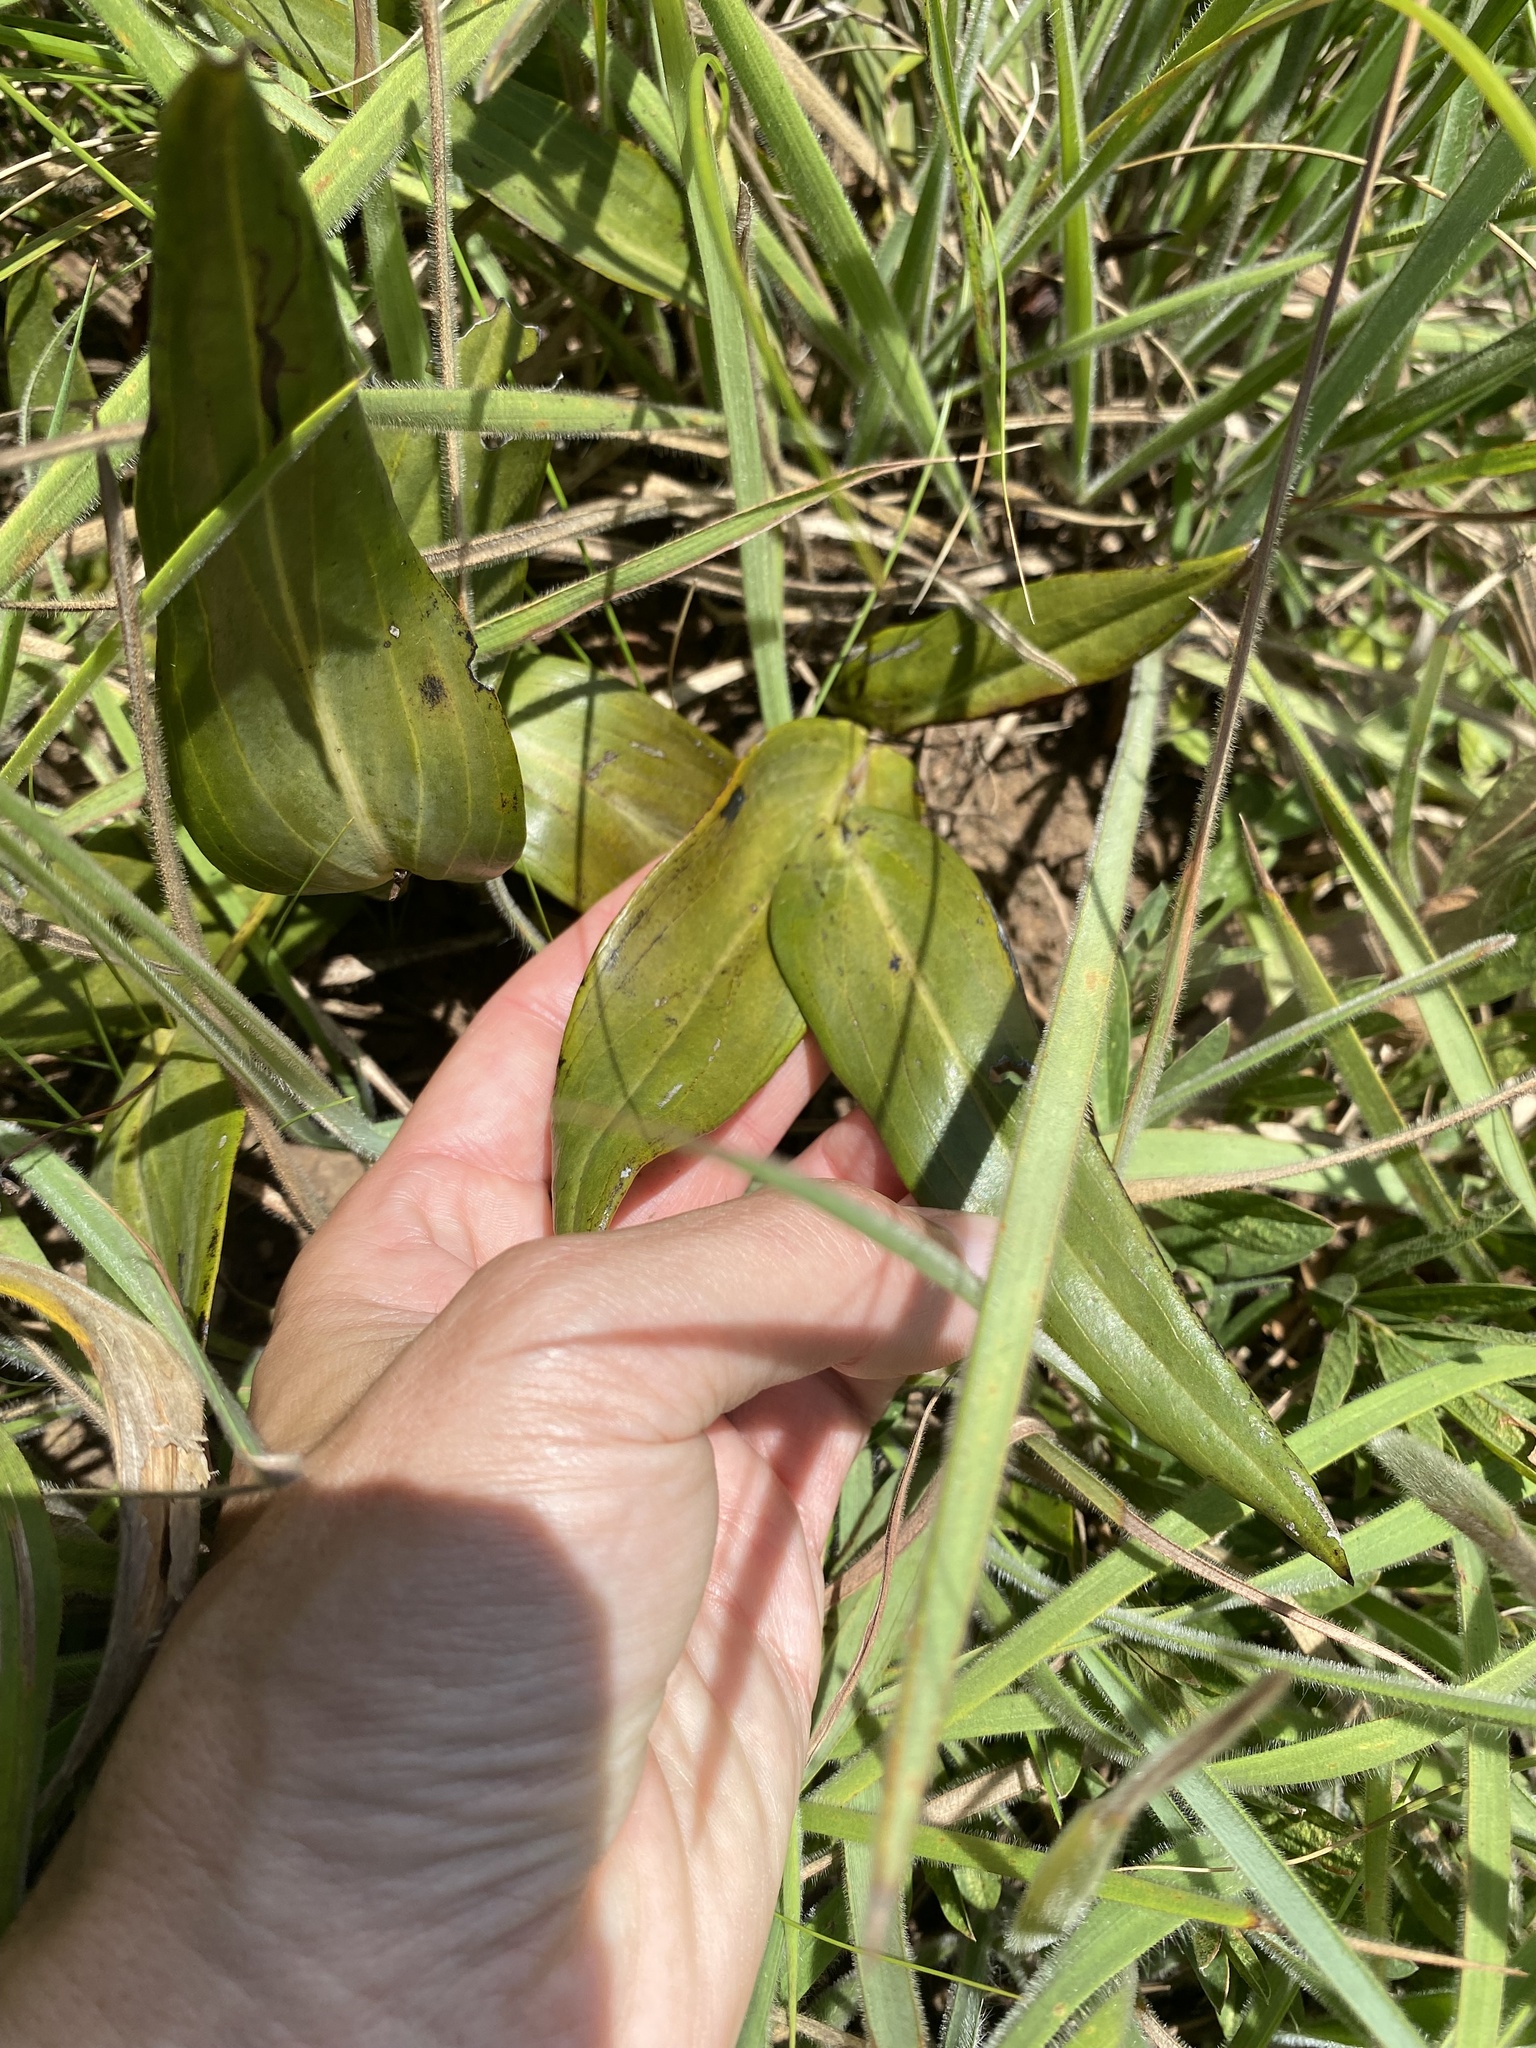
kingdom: Plantae
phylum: Tracheophyta
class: Magnoliopsida
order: Asterales
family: Asteraceae
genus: Senecio
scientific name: Senecio glaberrimus
